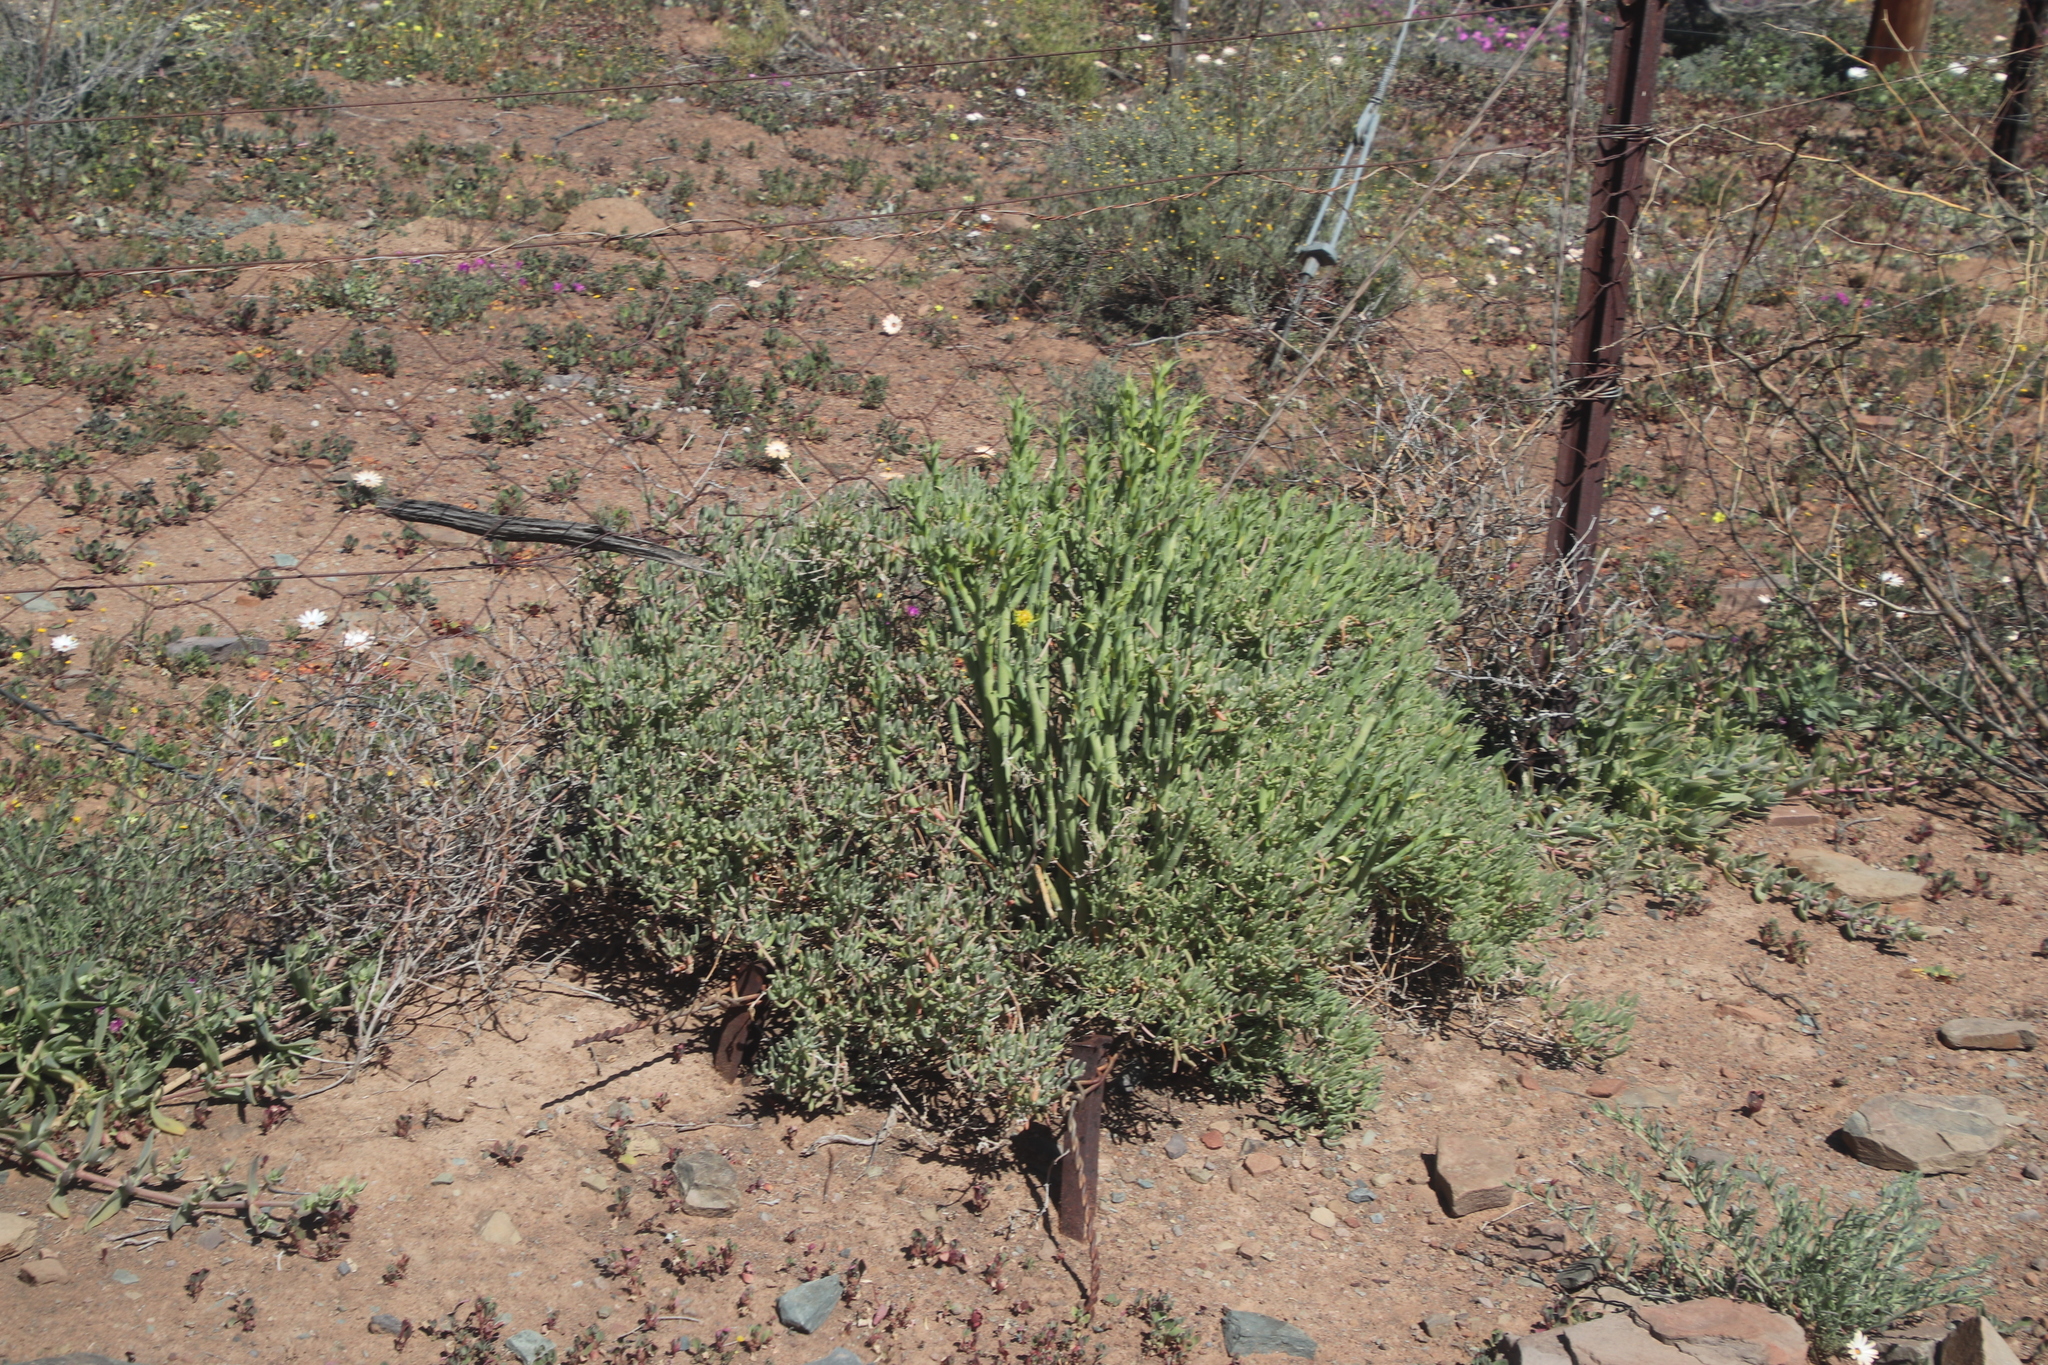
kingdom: Plantae
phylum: Tracheophyta
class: Magnoliopsida
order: Malpighiales
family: Euphorbiaceae
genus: Euphorbia
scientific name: Euphorbia mauritanica
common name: Jackal's-food
